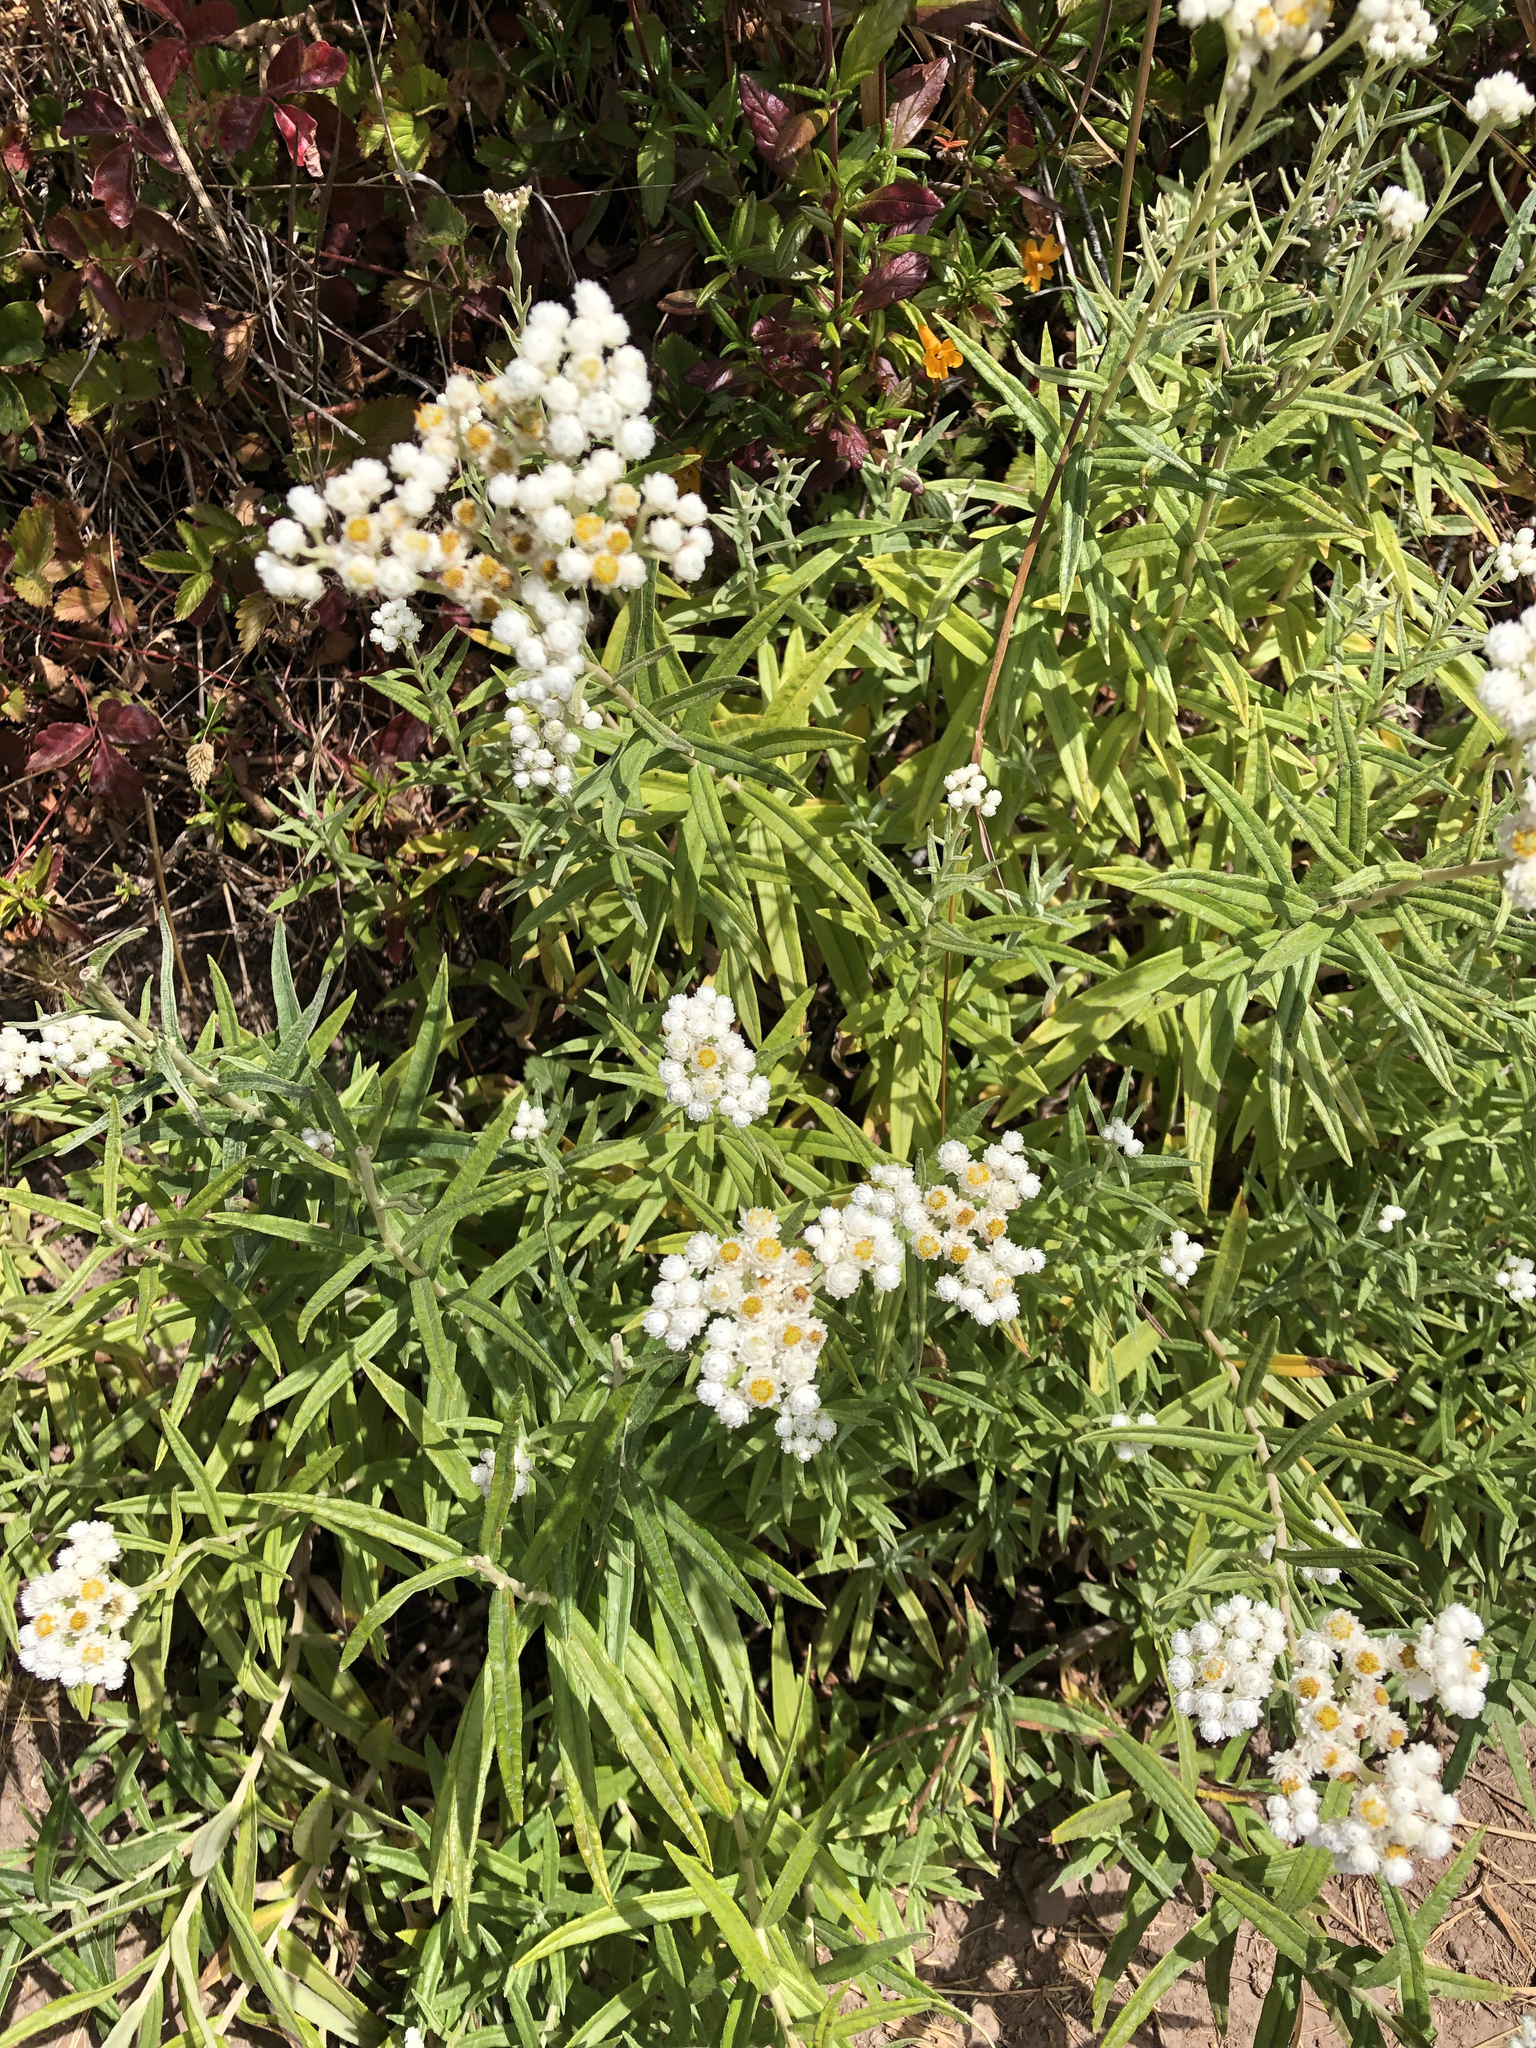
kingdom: Plantae
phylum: Tracheophyta
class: Magnoliopsida
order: Asterales
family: Asteraceae
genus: Anaphalis
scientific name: Anaphalis margaritacea
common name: Pearly everlasting
